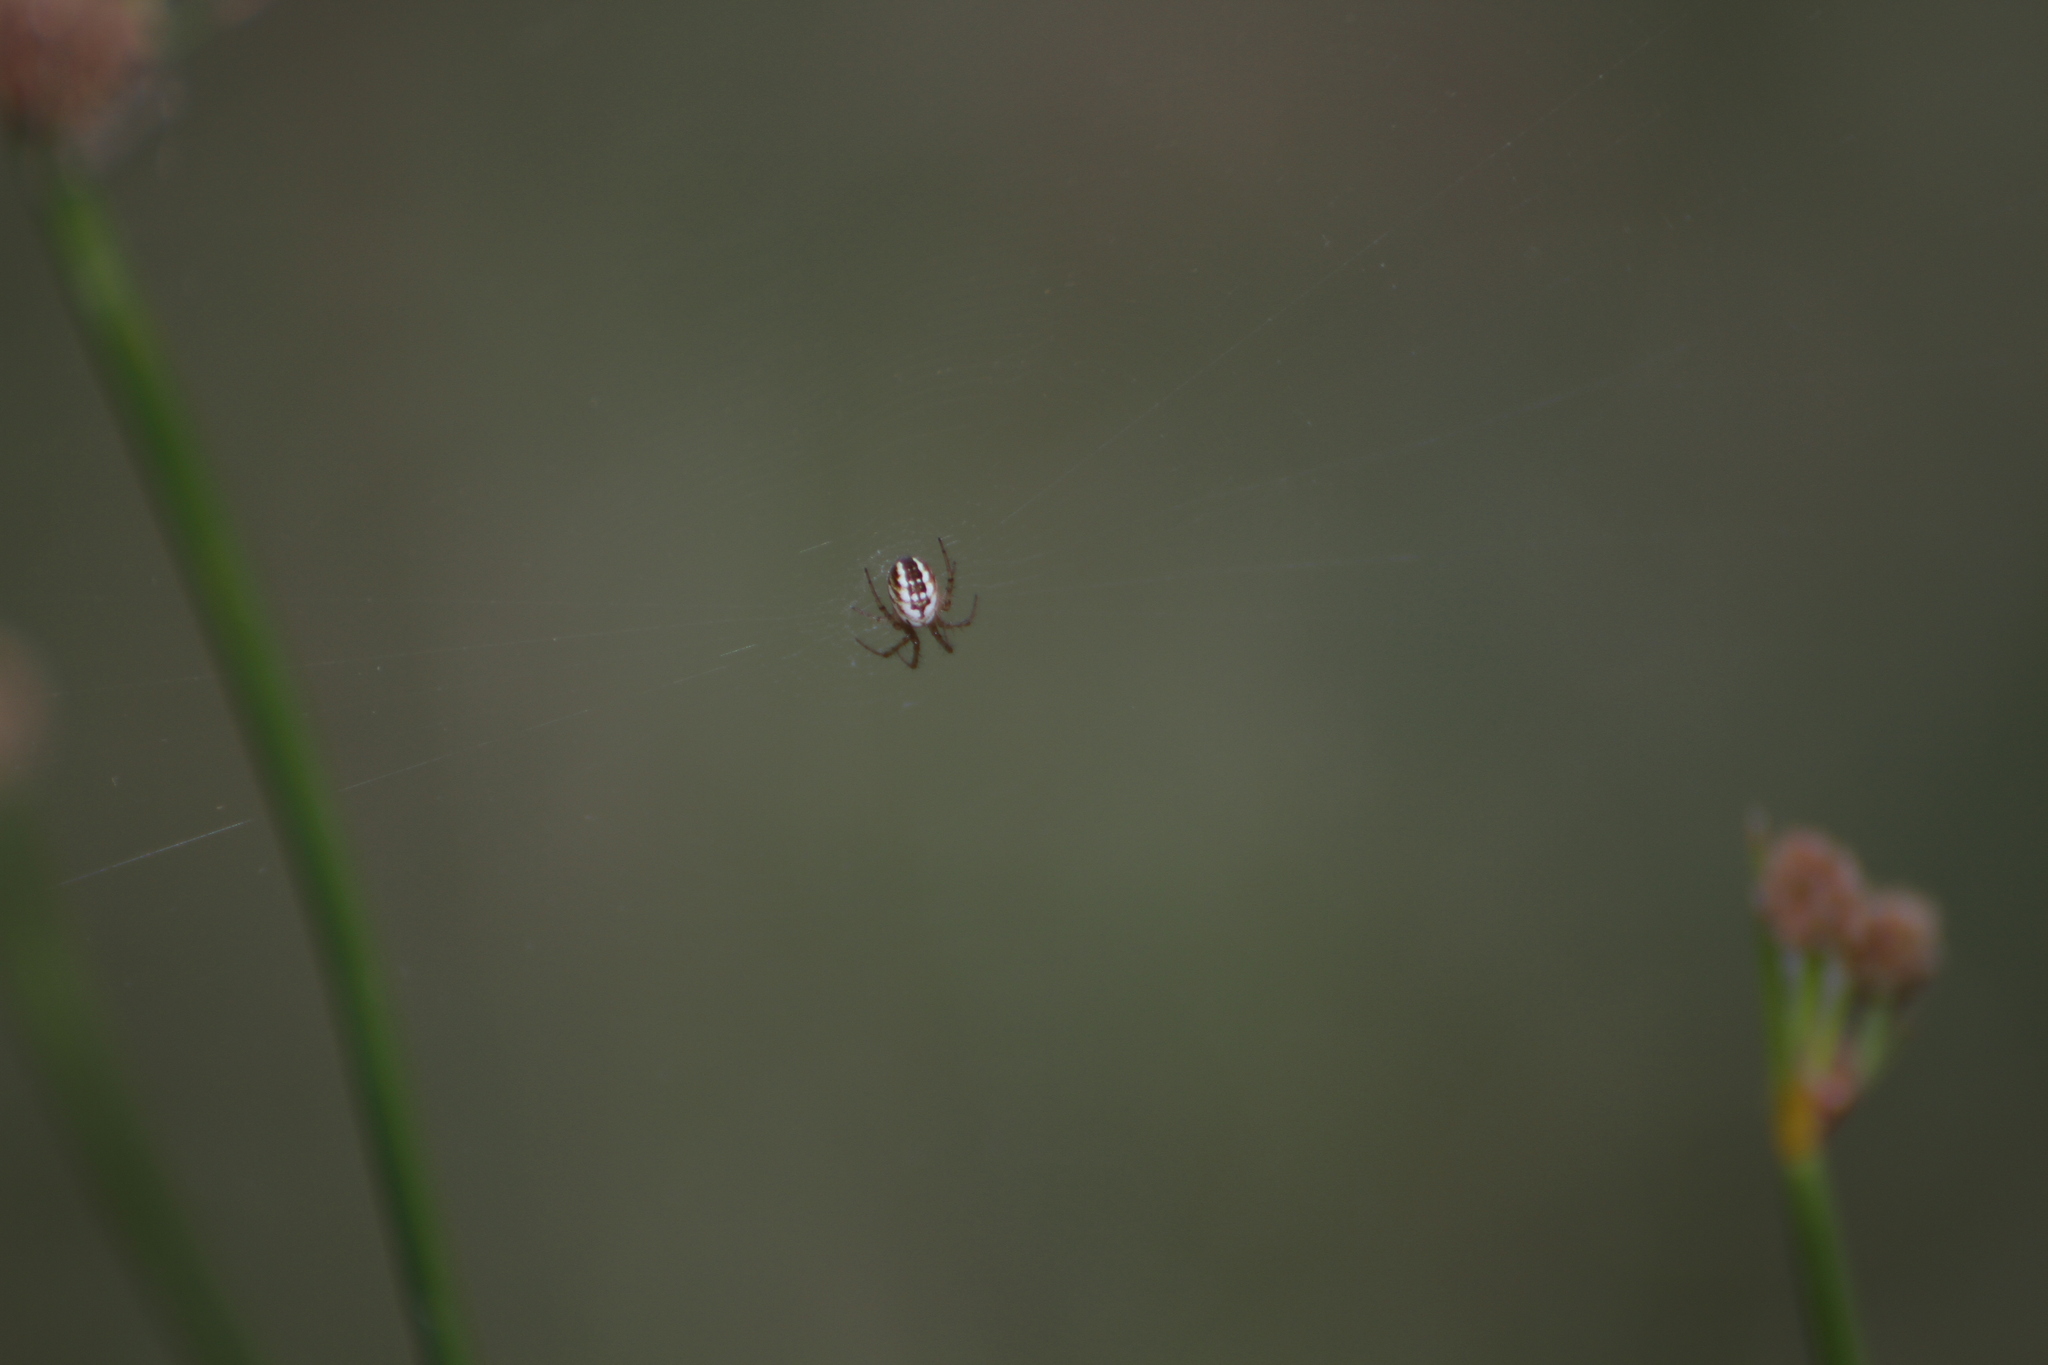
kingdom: Animalia
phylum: Arthropoda
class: Arachnida
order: Araneae
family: Araneidae
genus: Mangora
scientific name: Mangora acalypha
